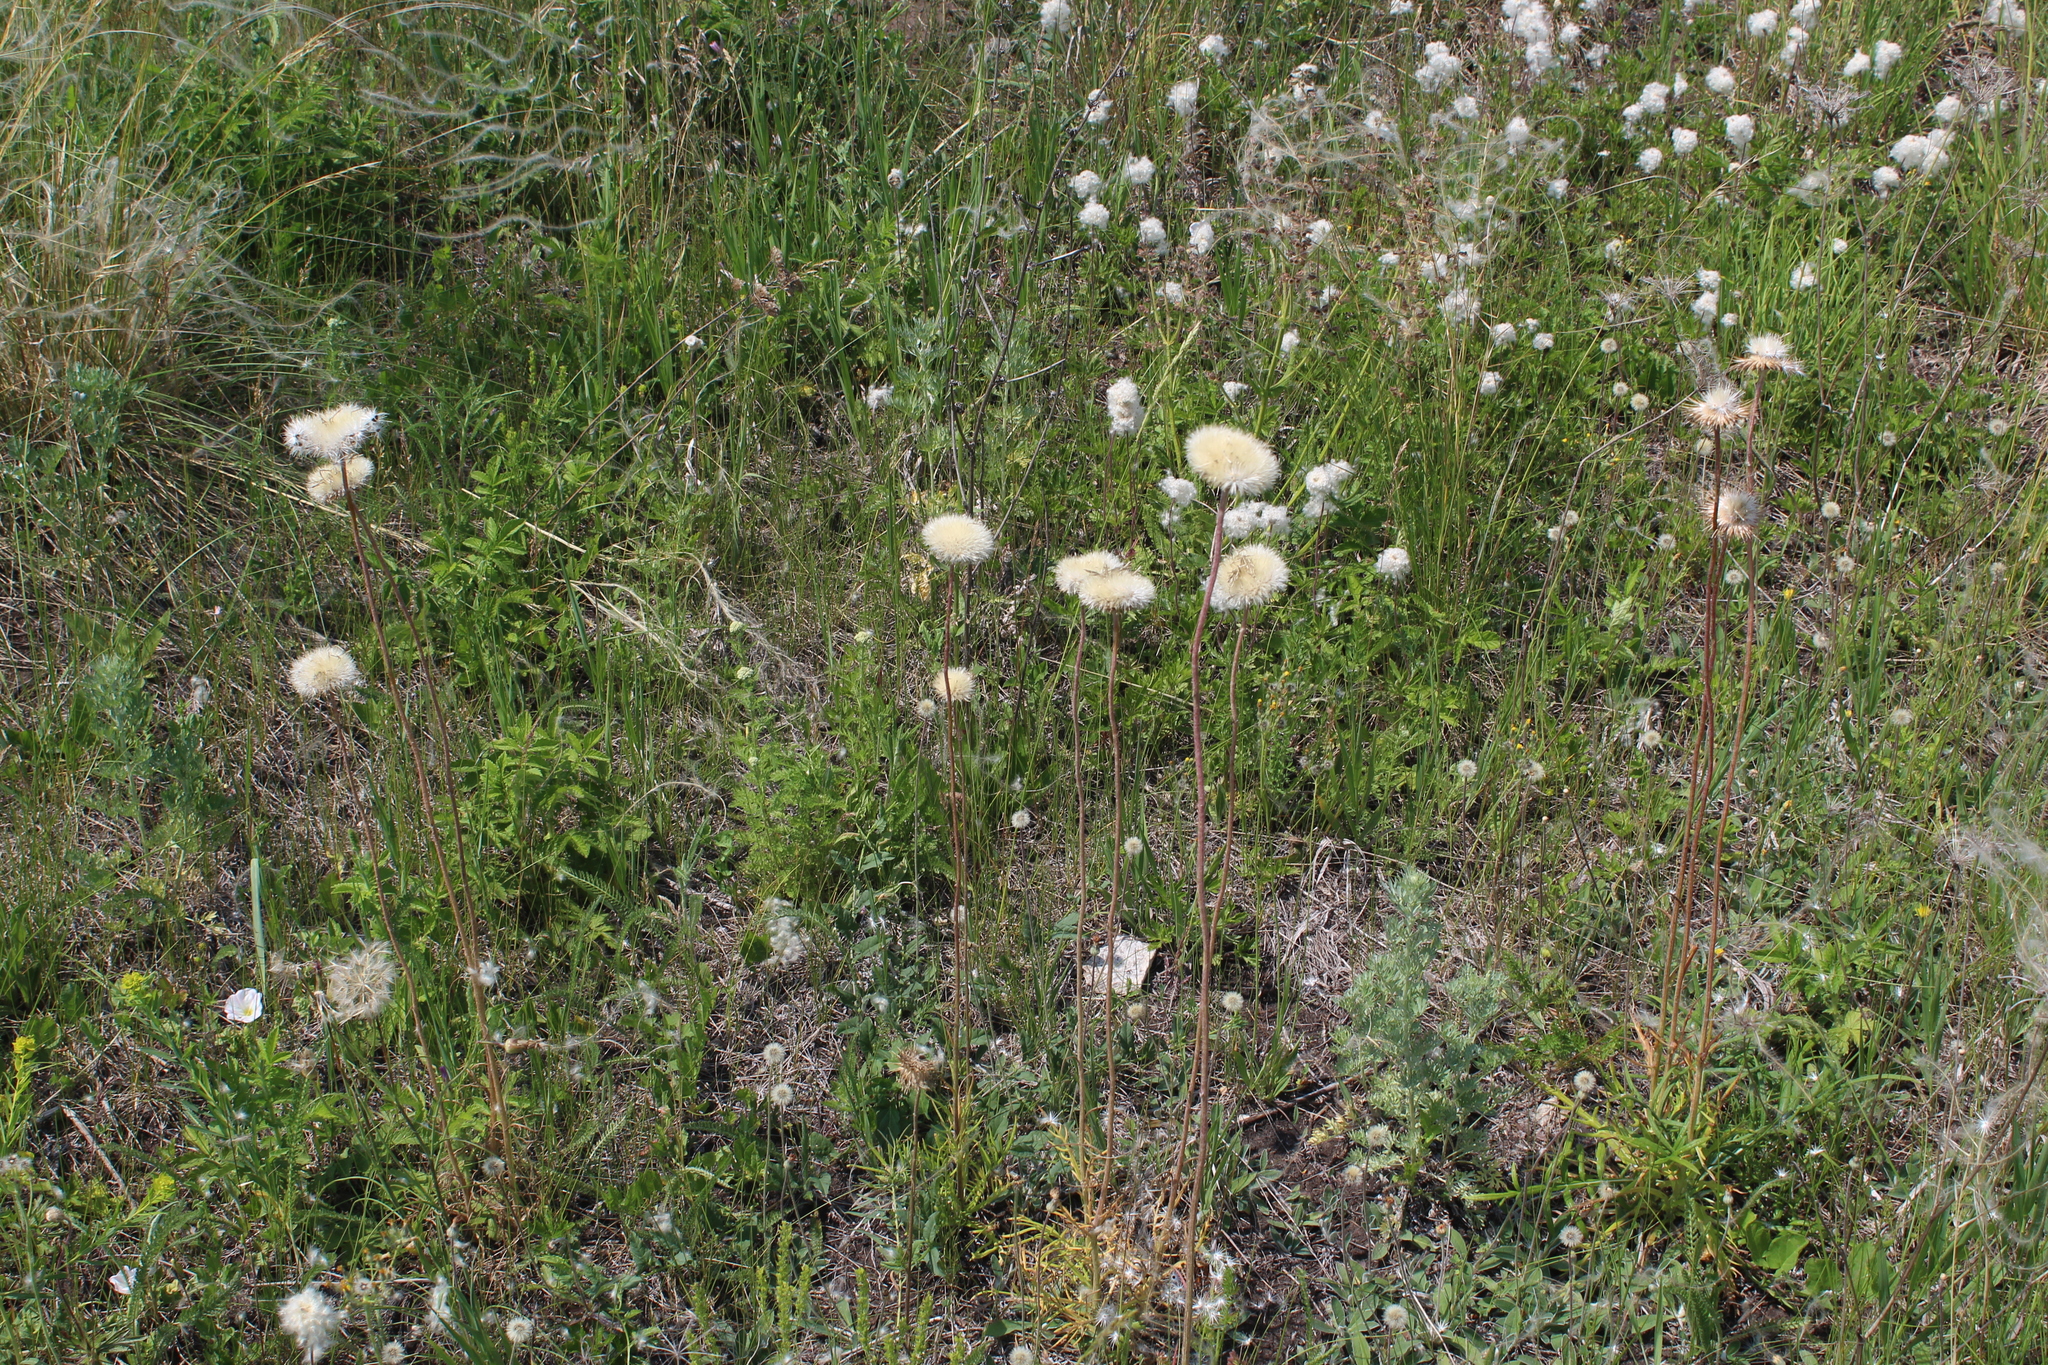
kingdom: Plantae
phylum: Tracheophyta
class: Magnoliopsida
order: Asterales
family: Asteraceae
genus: Jurinea
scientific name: Jurinea ledebourii
